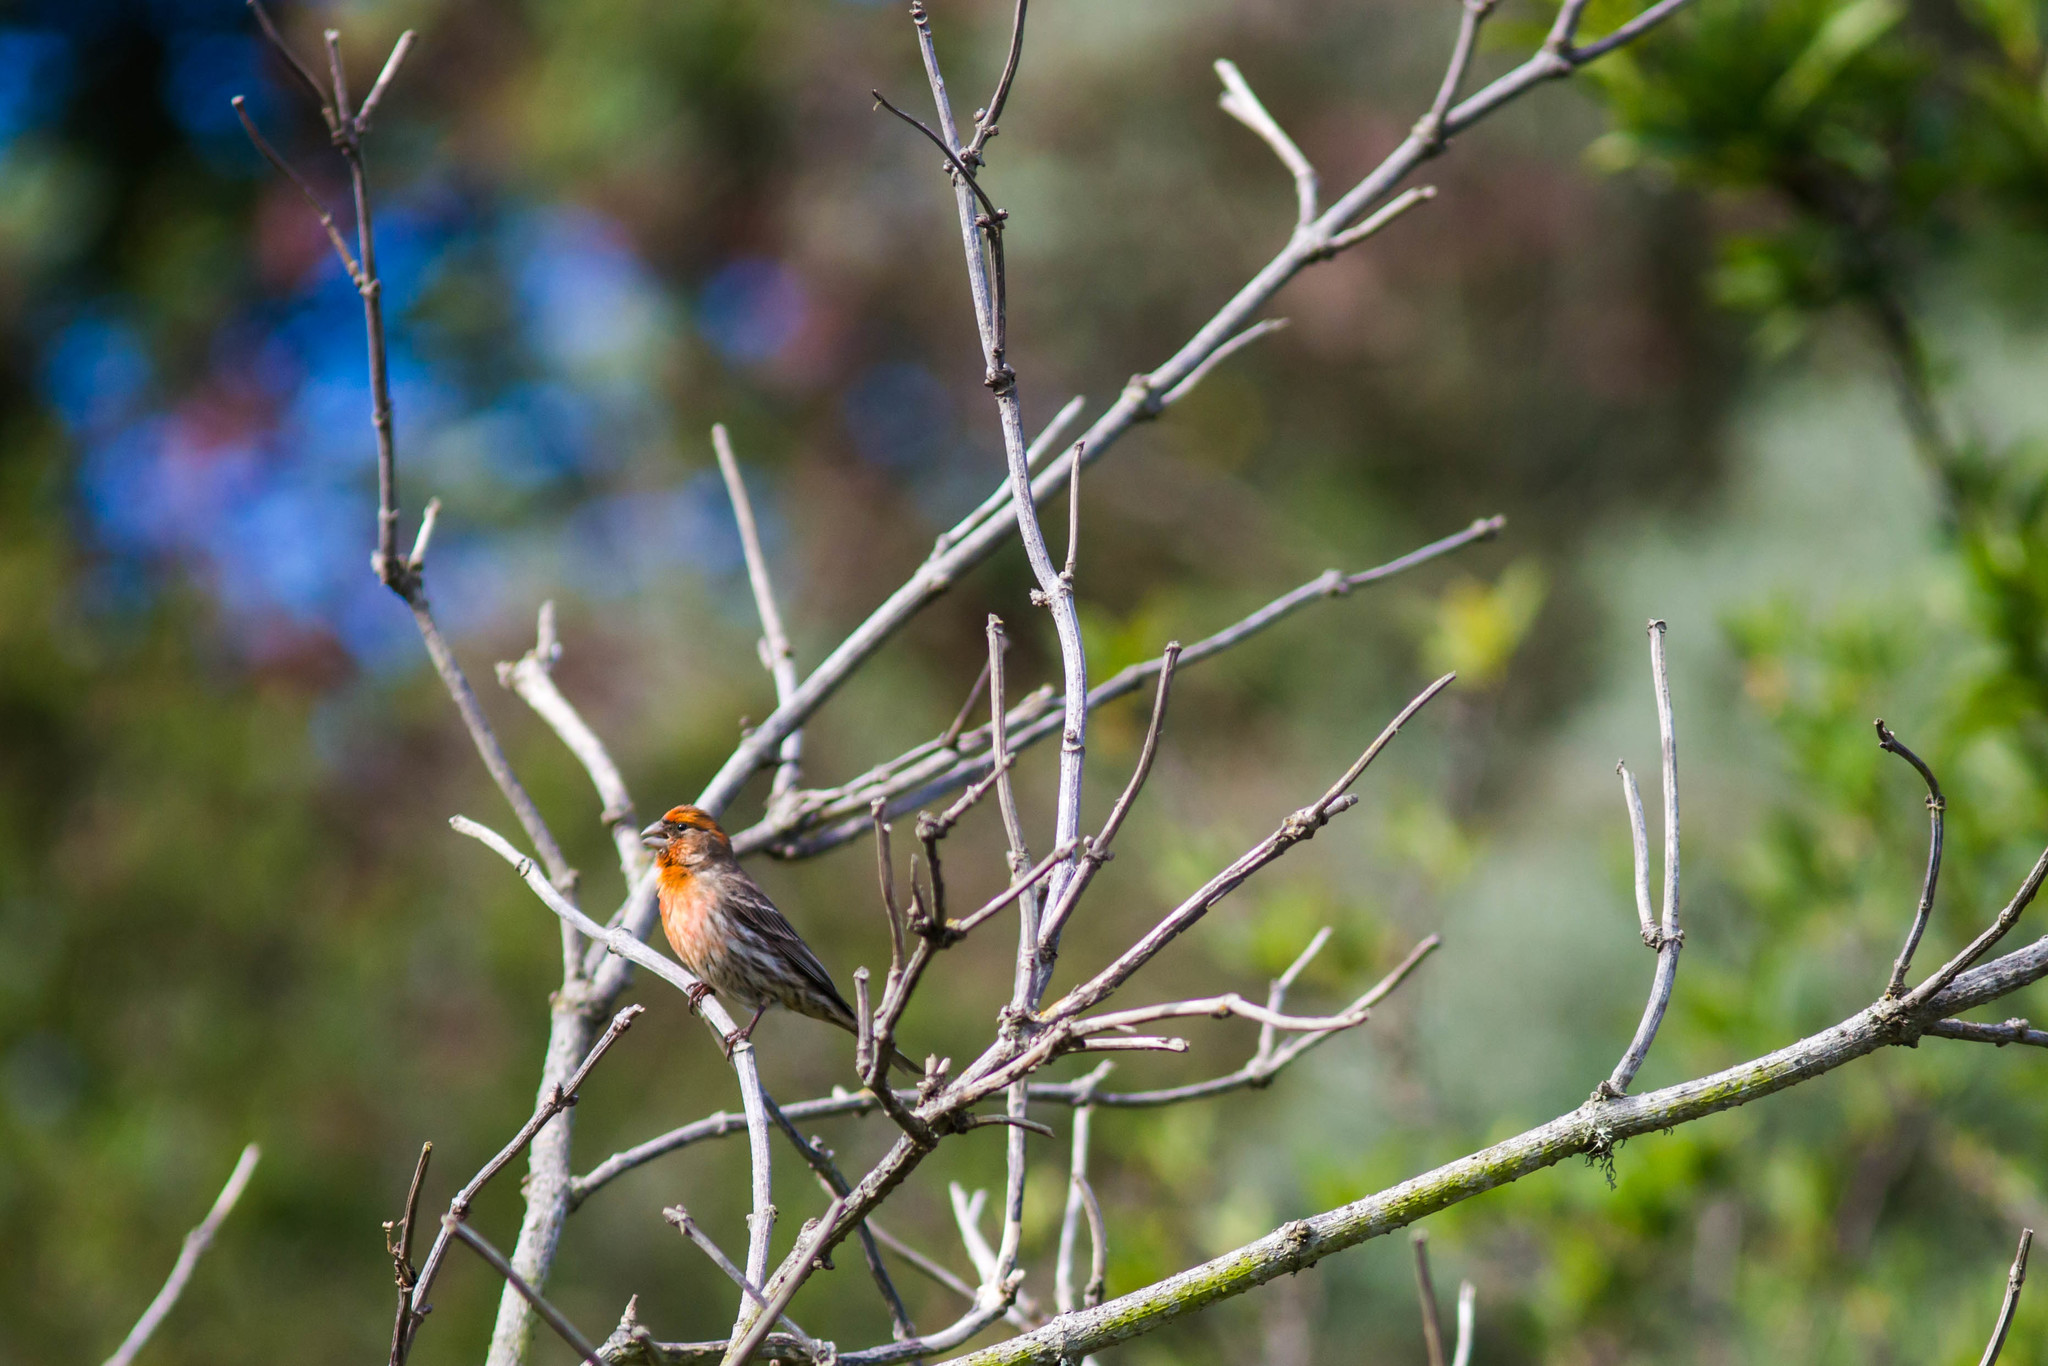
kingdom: Animalia
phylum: Chordata
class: Aves
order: Passeriformes
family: Fringillidae
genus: Haemorhous
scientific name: Haemorhous mexicanus
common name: House finch
